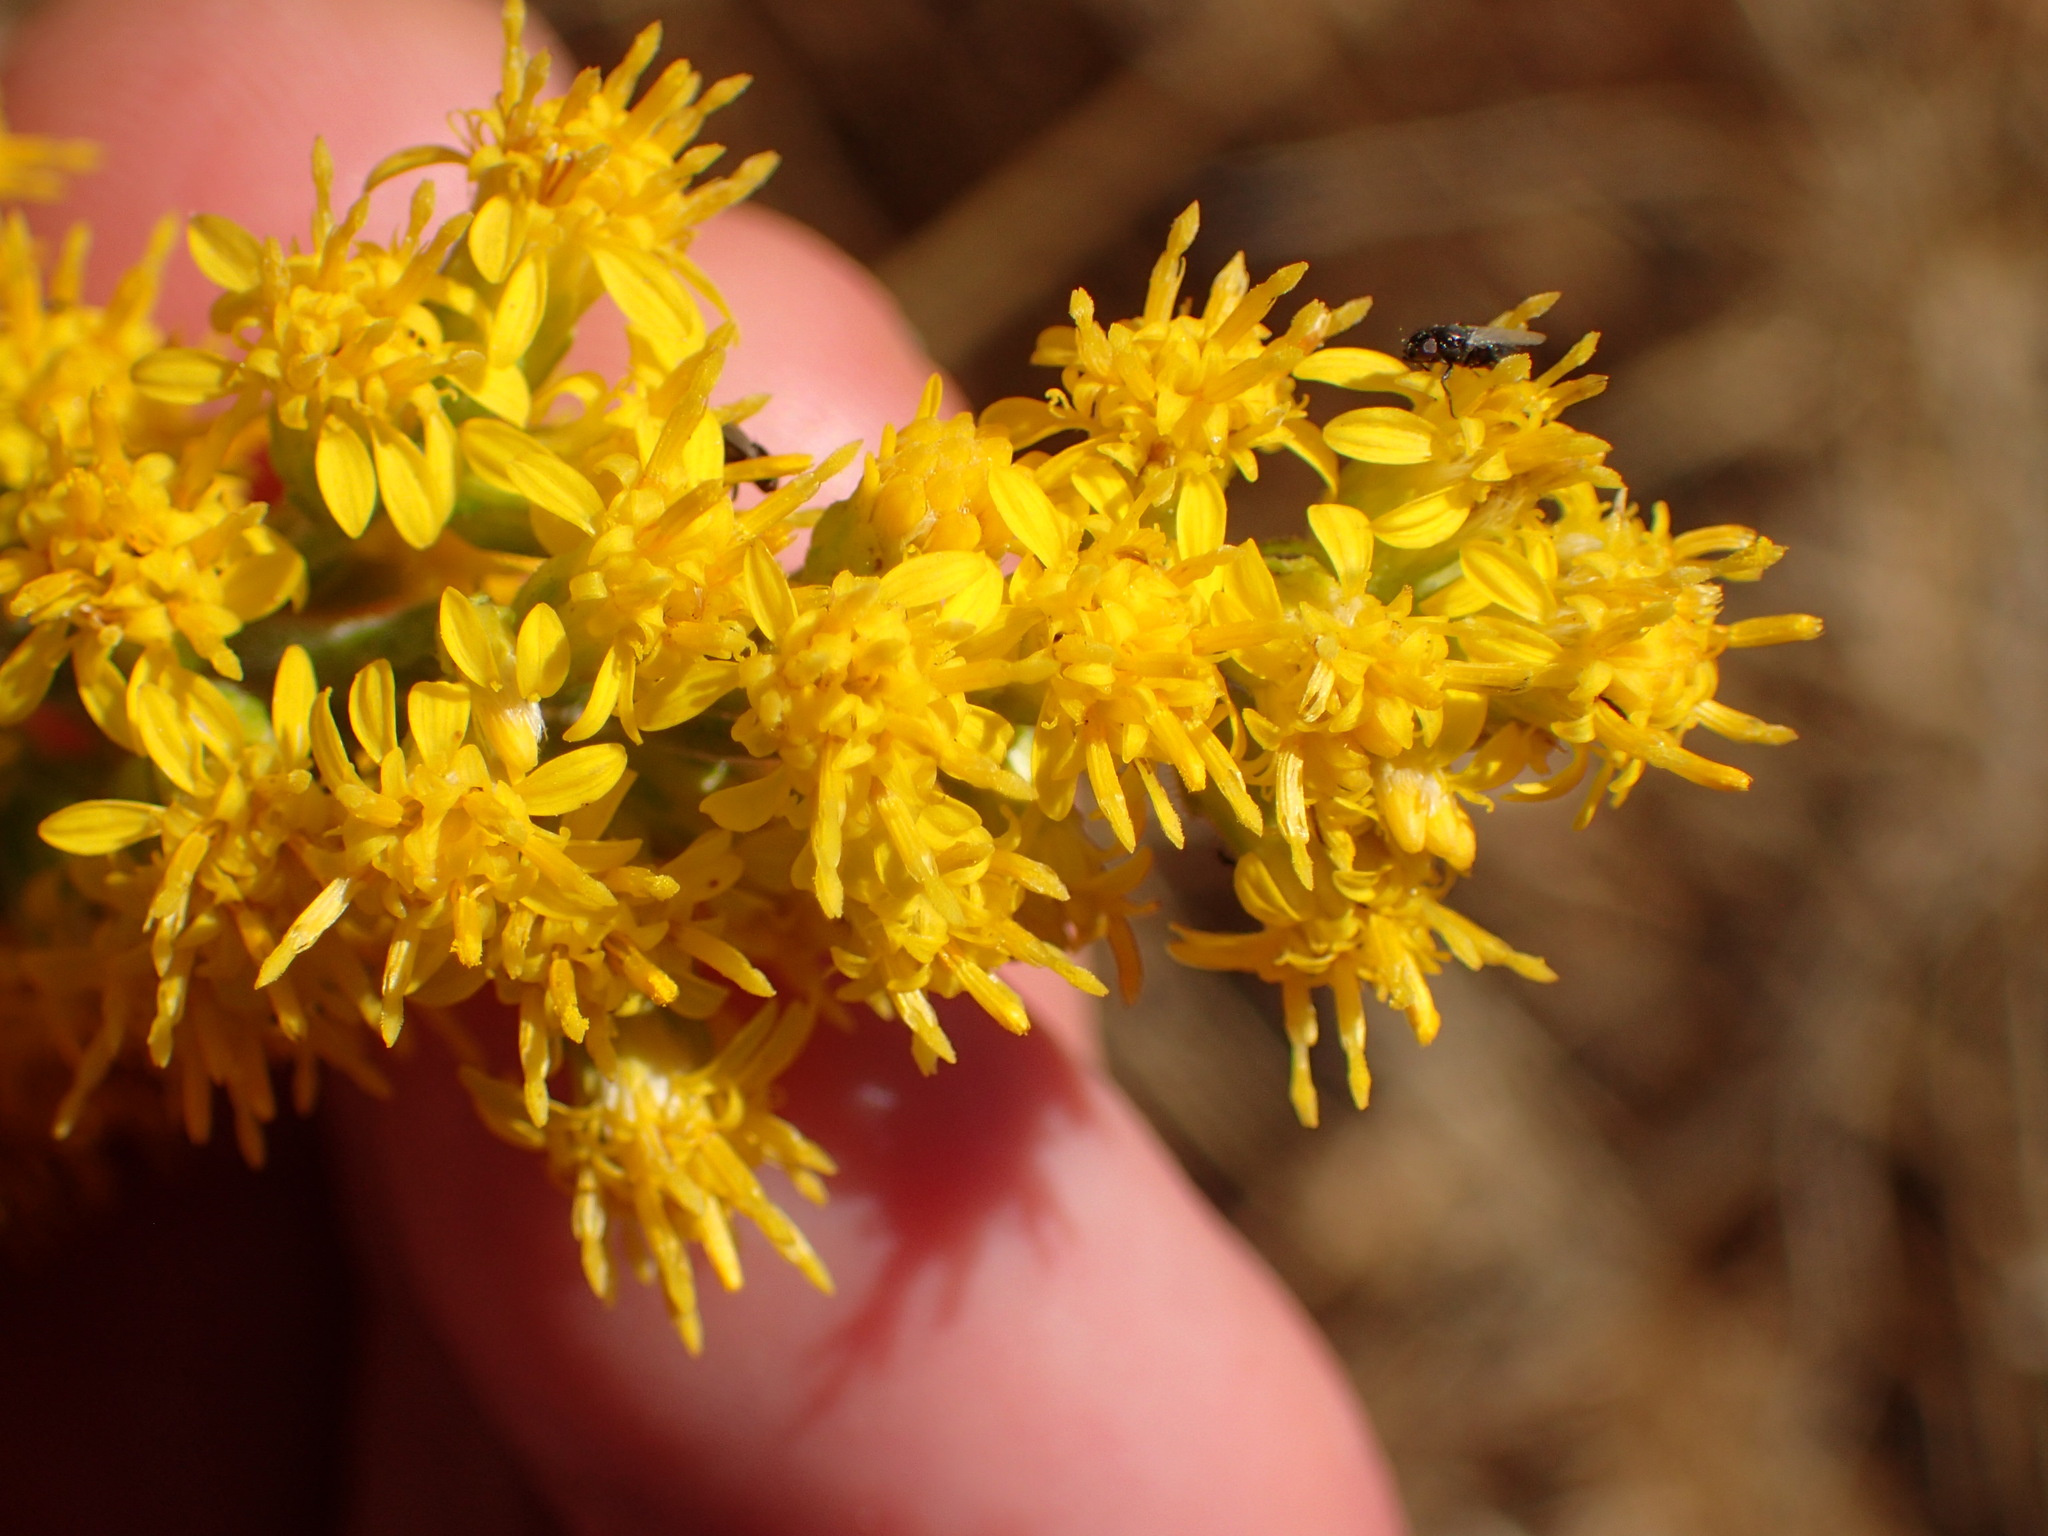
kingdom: Plantae
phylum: Tracheophyta
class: Magnoliopsida
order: Asterales
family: Asteraceae
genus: Solidago
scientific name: Solidago velutina
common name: Three-nerve goldenrod
